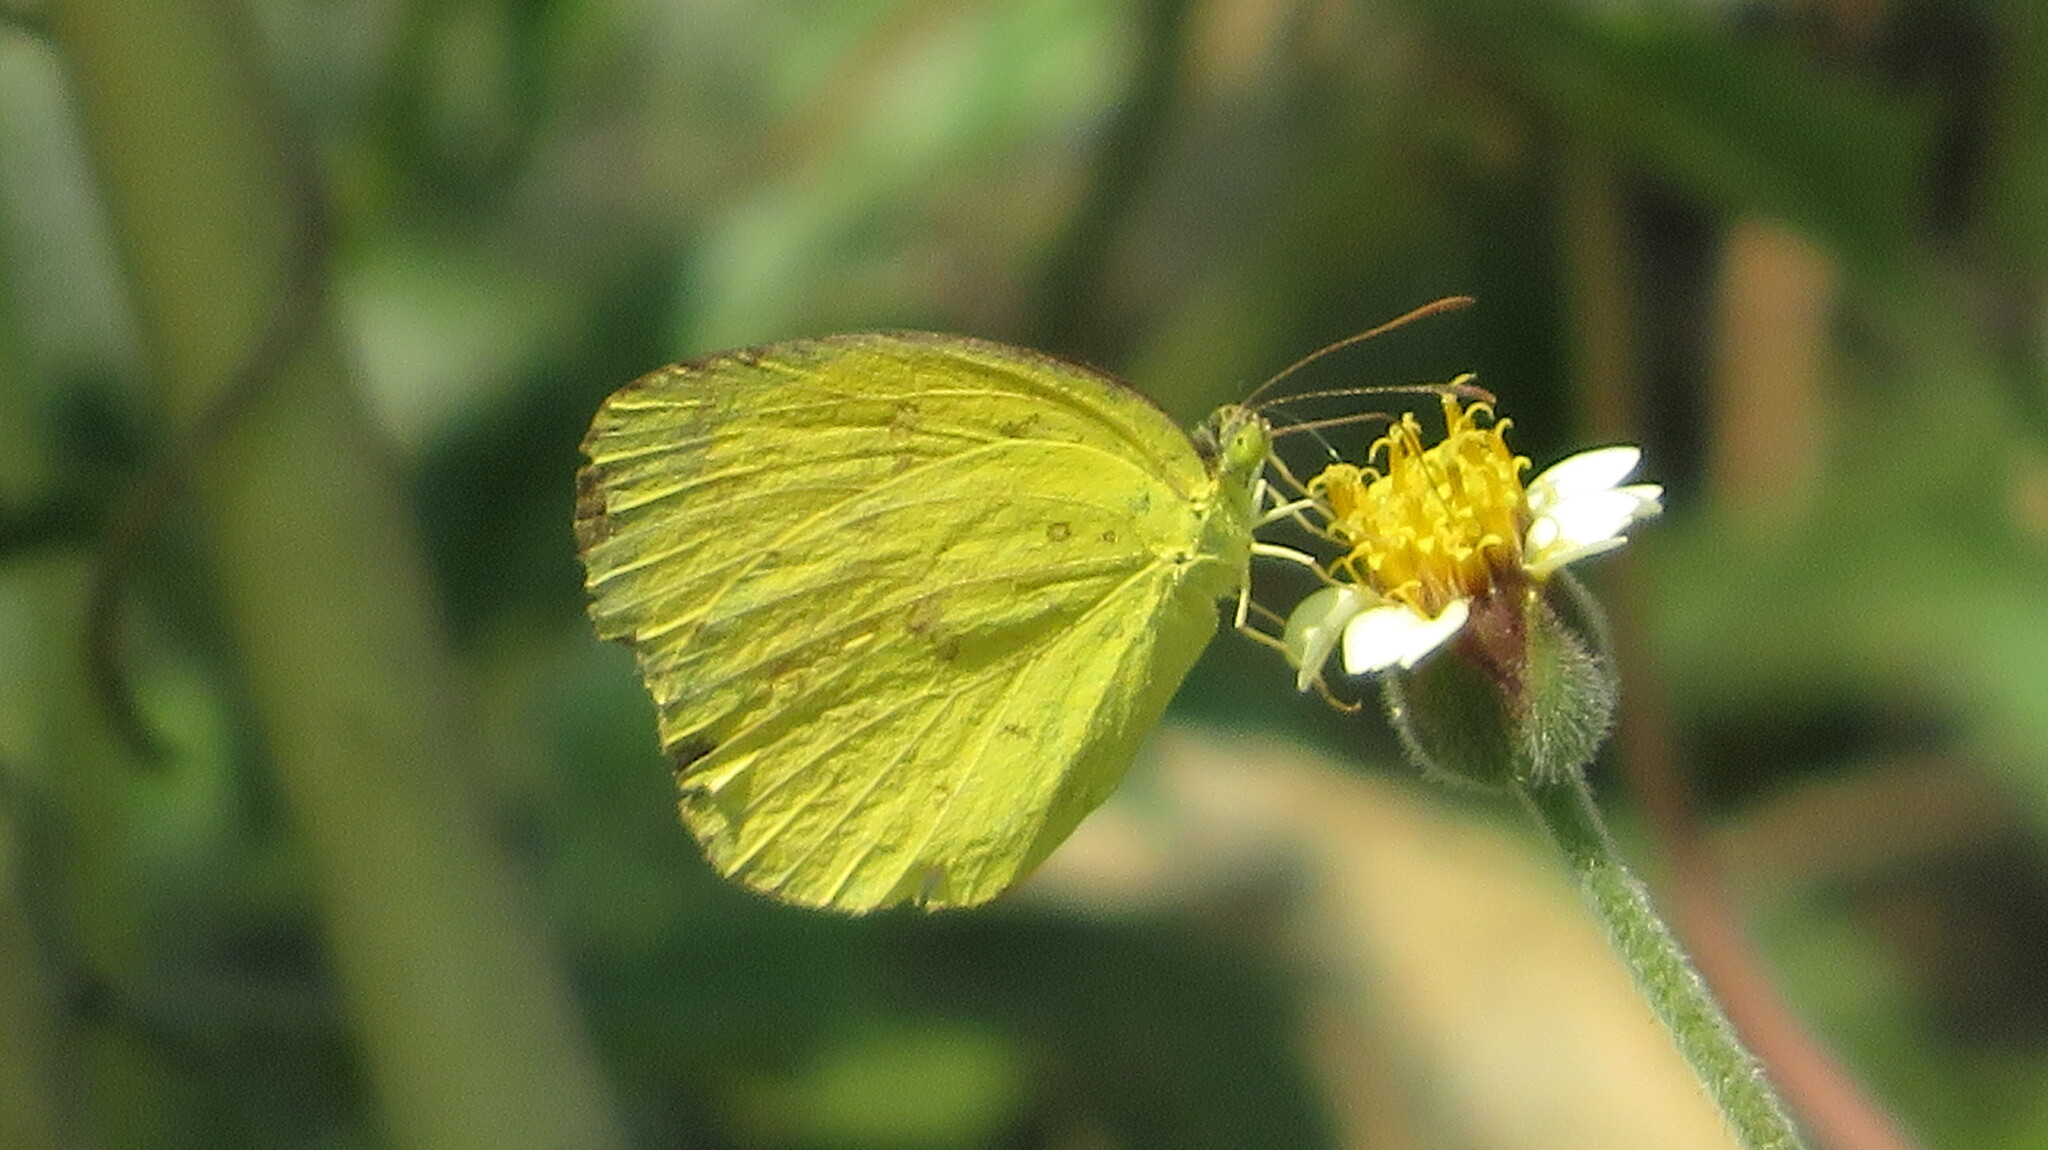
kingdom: Animalia
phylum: Arthropoda
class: Insecta
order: Lepidoptera
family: Pieridae
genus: Eurema
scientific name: Eurema hecabe
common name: Pale grass yellow
